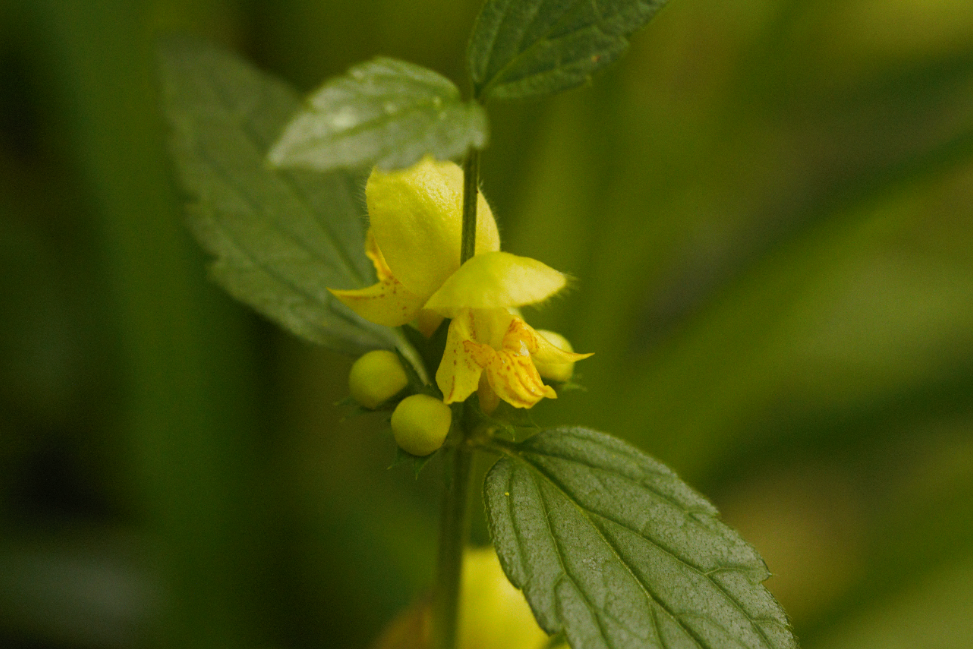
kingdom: Plantae
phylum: Tracheophyta
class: Magnoliopsida
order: Lamiales
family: Lamiaceae
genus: Lamium
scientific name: Lamium galeobdolon
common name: Yellow archangel
